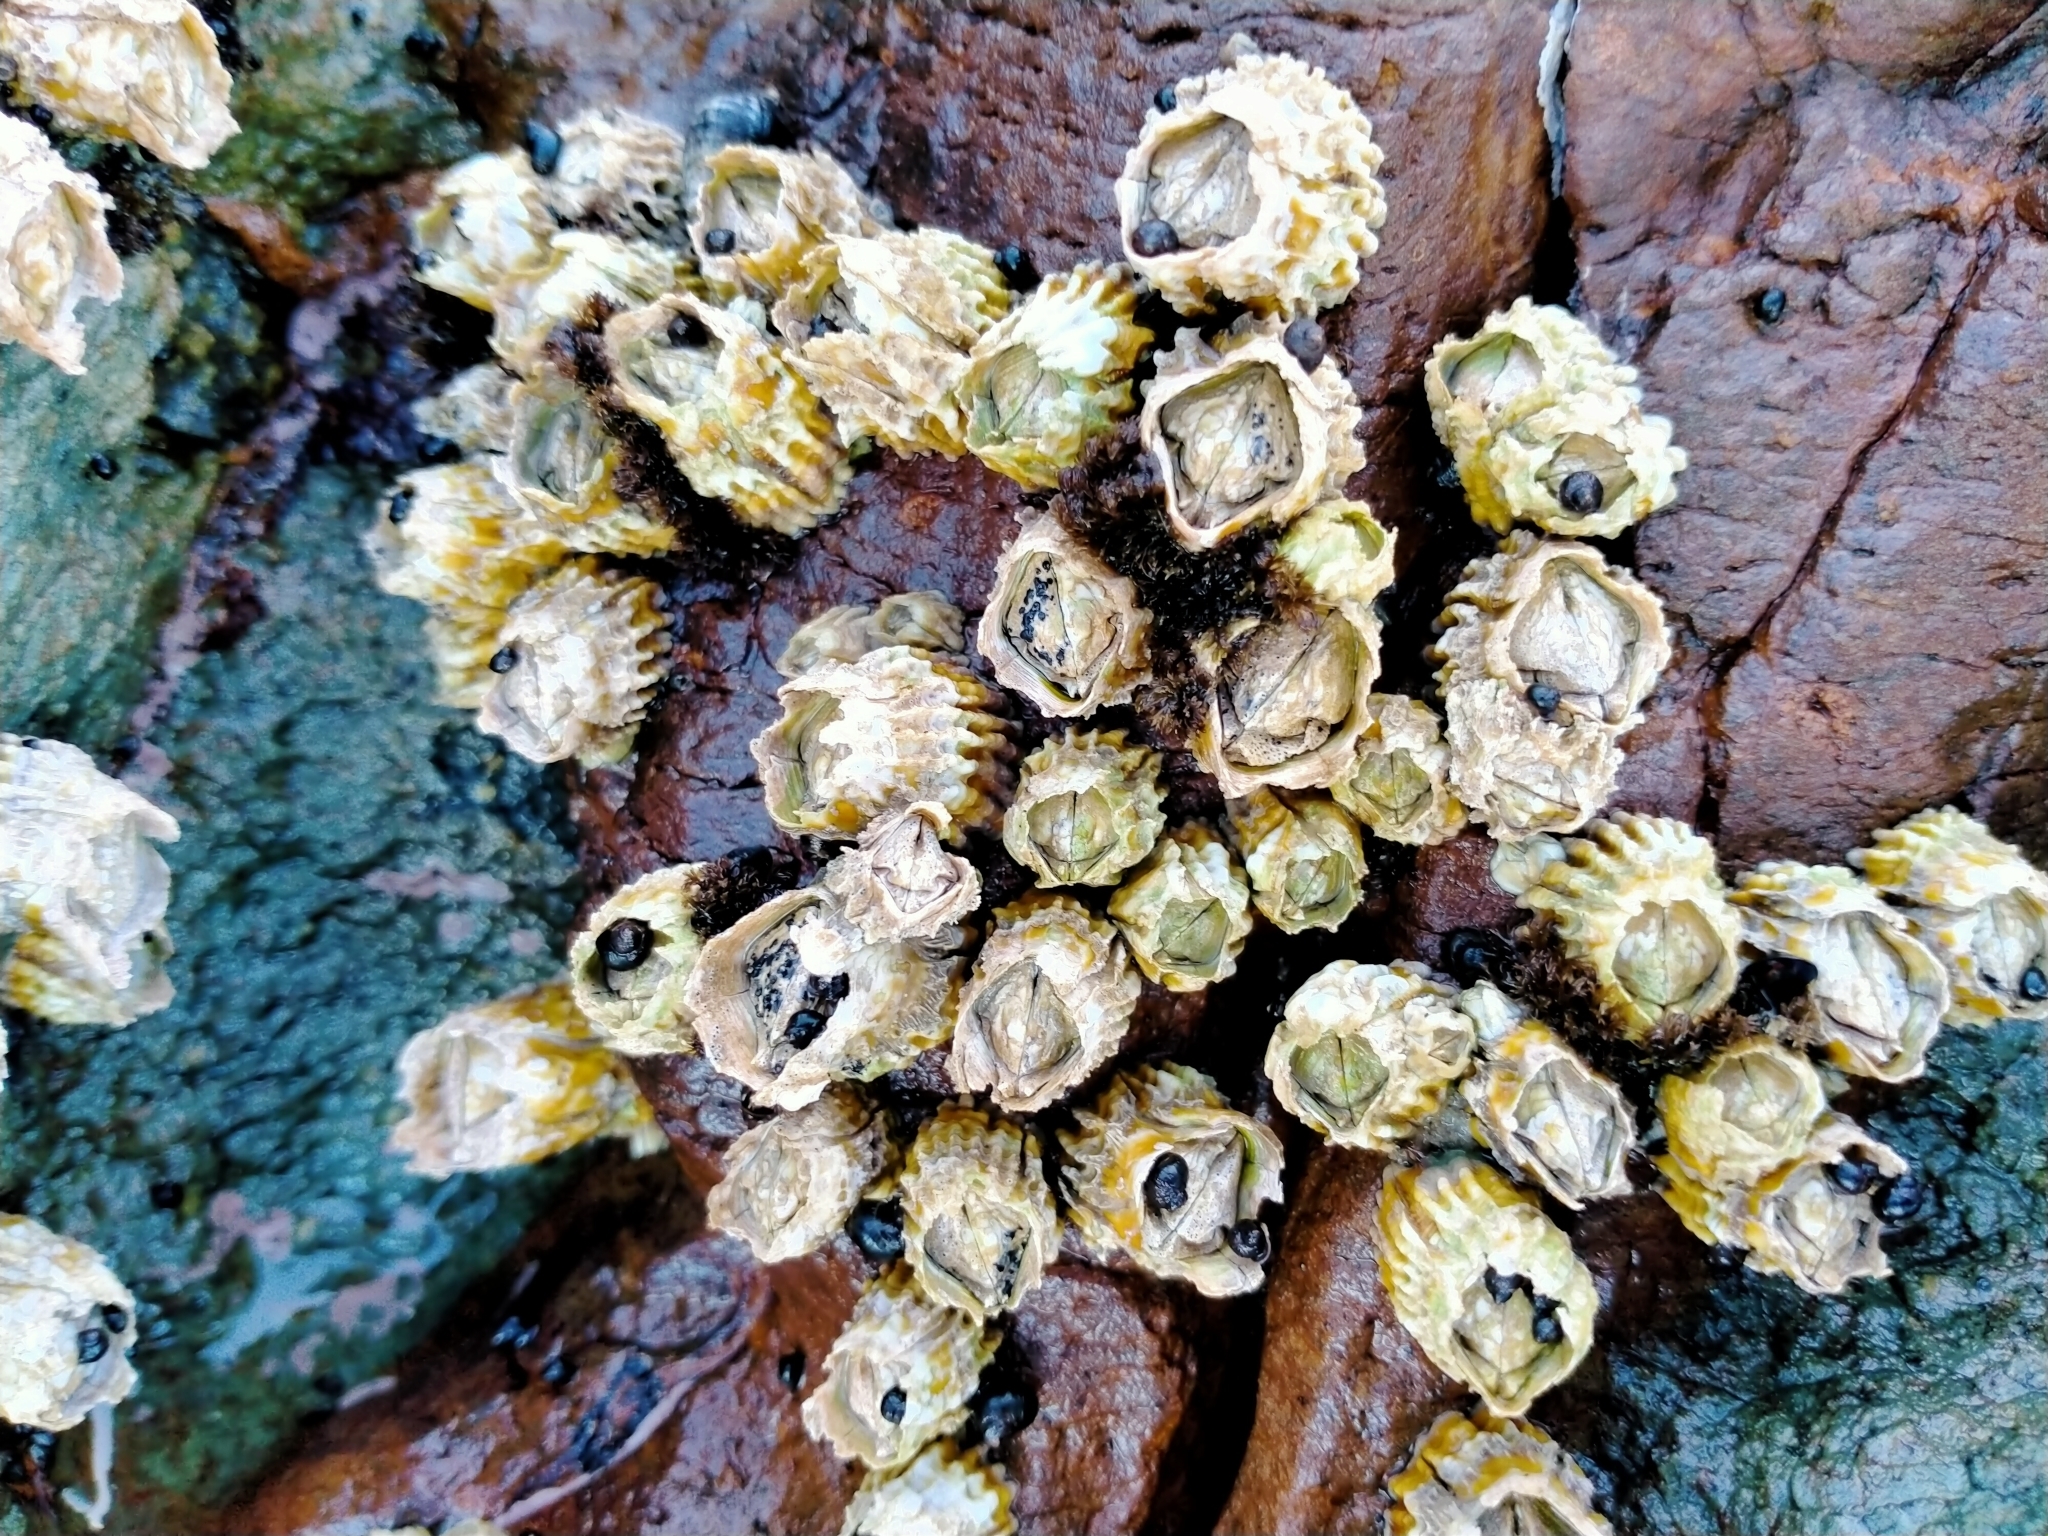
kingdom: Animalia
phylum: Arthropoda
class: Maxillopoda
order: Sessilia
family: Tetraclitidae
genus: Epopella
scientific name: Epopella plicata
